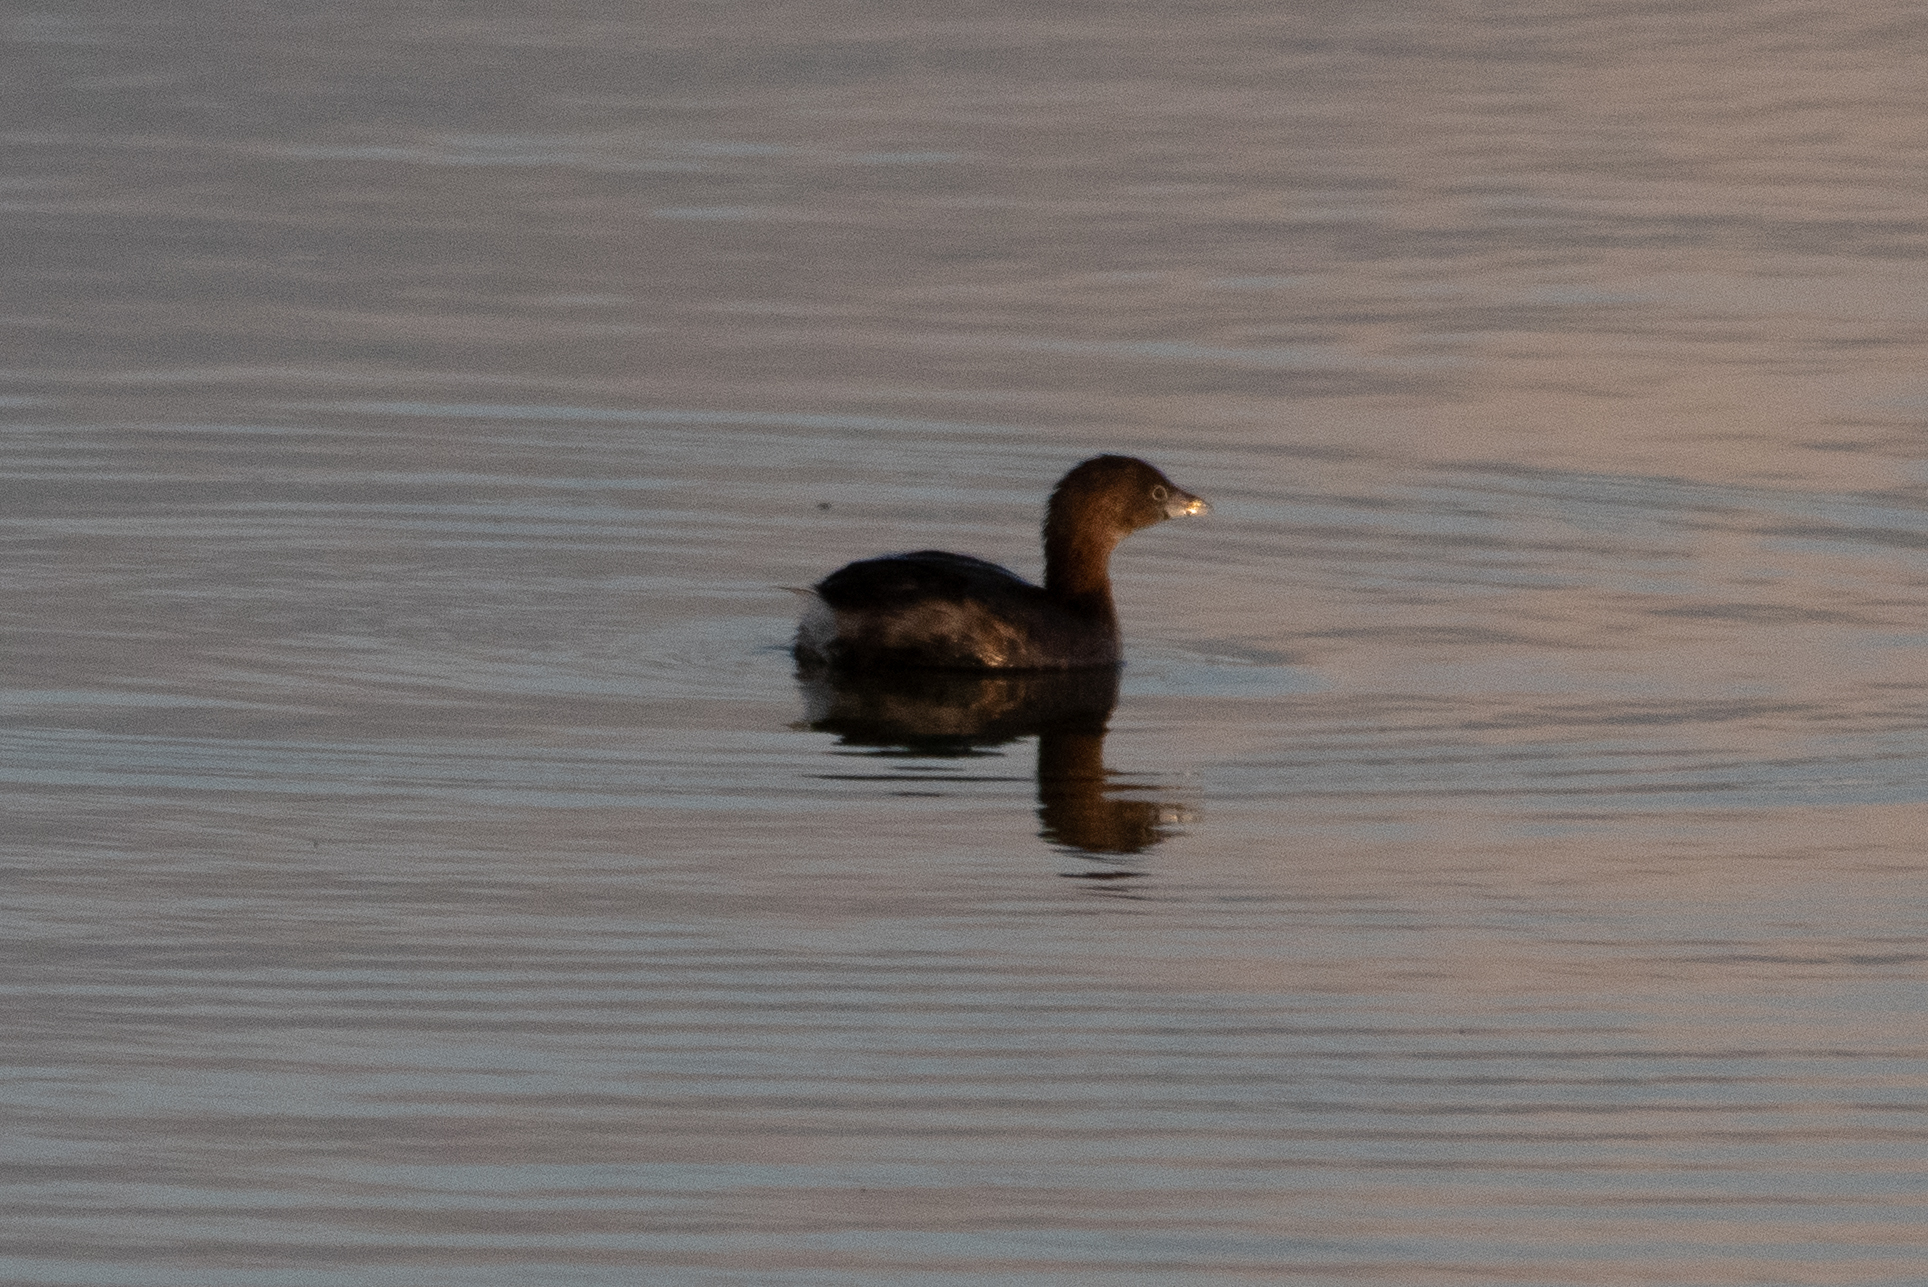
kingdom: Animalia
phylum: Chordata
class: Aves
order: Podicipediformes
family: Podicipedidae
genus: Podilymbus
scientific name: Podilymbus podiceps
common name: Pied-billed grebe
